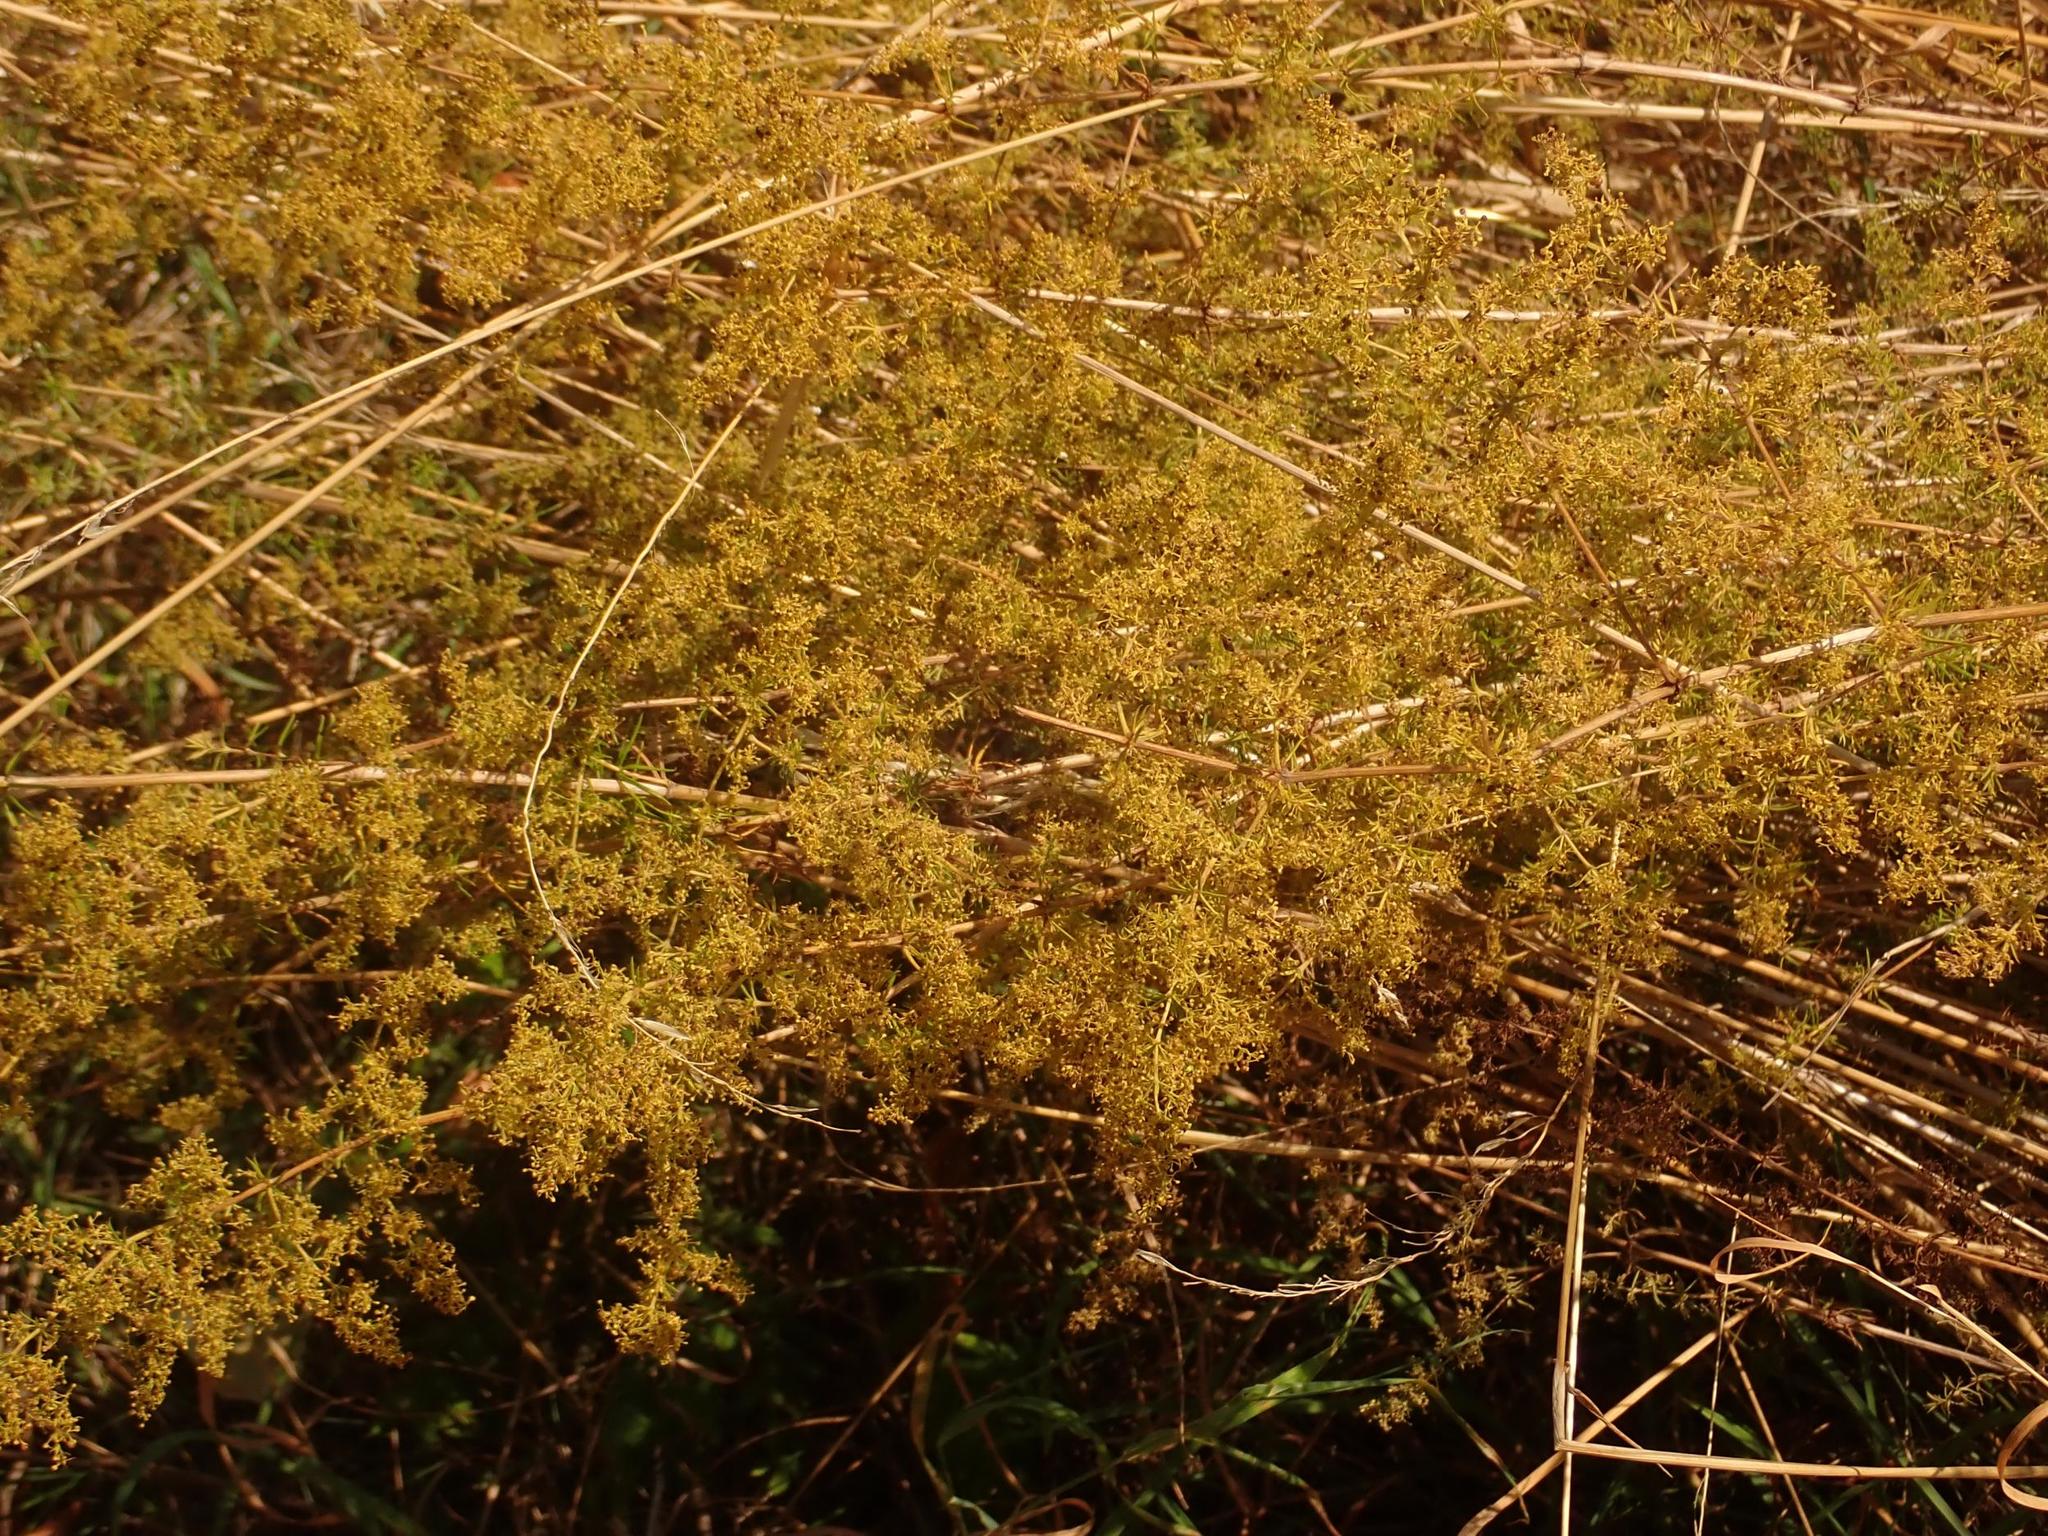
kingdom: Plantae
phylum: Tracheophyta
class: Magnoliopsida
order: Gentianales
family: Rubiaceae
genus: Galium
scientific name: Galium verum
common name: Lady's bedstraw
